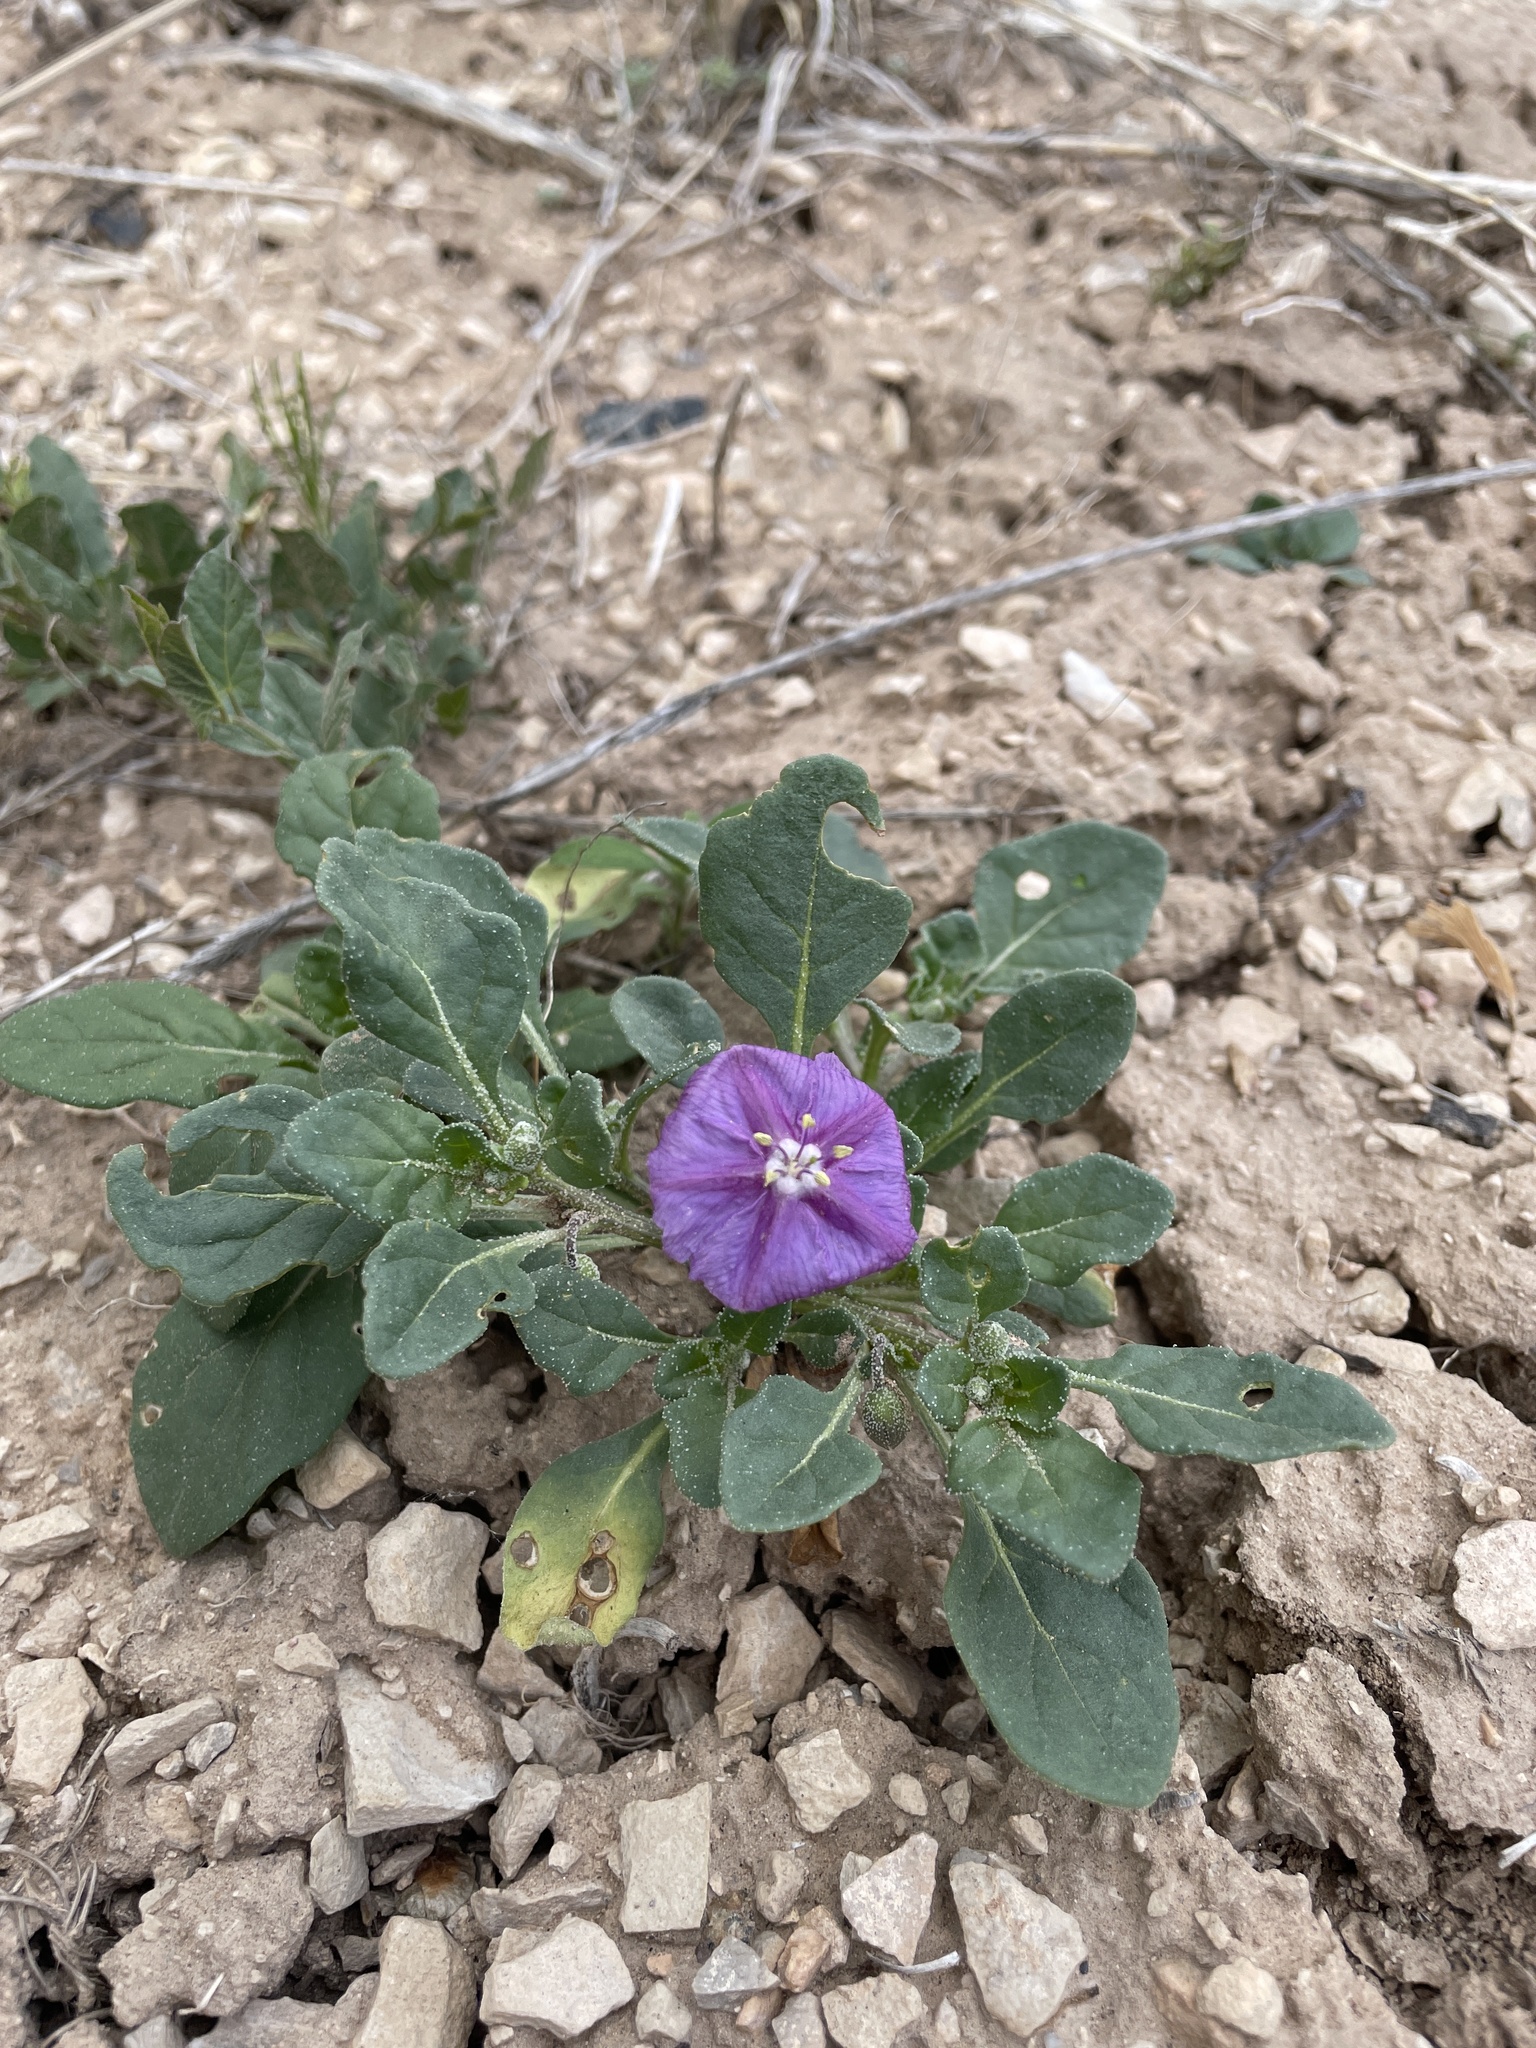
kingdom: Plantae
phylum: Tracheophyta
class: Magnoliopsida
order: Solanales
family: Solanaceae
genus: Quincula
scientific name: Quincula lobata
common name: Purple-ground-cherry
